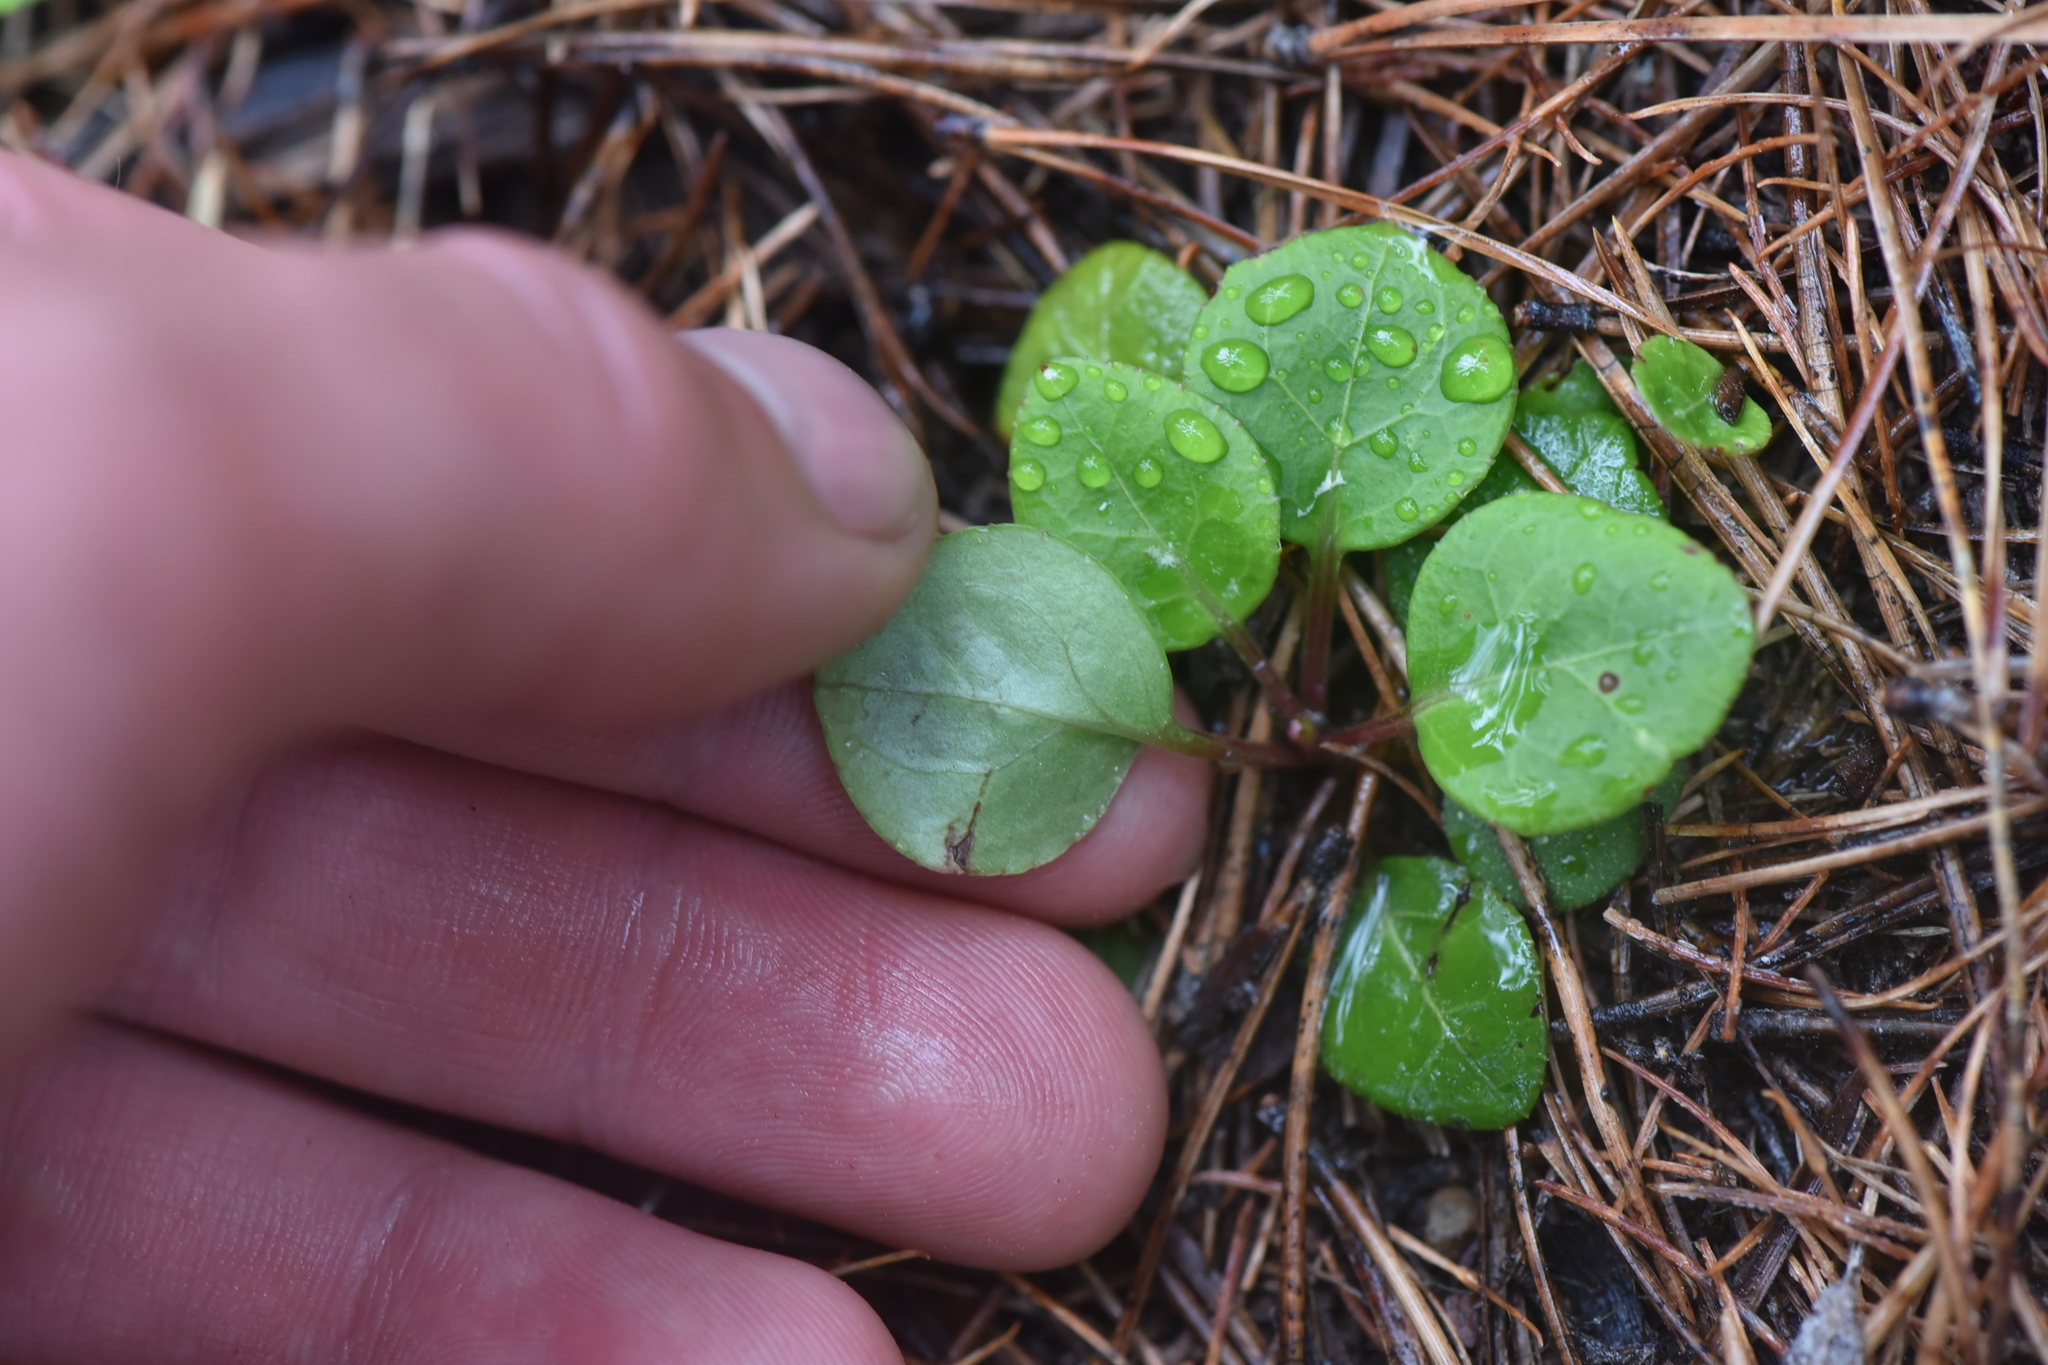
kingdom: Plantae
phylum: Tracheophyta
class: Magnoliopsida
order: Ericales
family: Ericaceae
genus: Pyrola
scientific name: Pyrola chlorantha
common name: Green wintergreen
